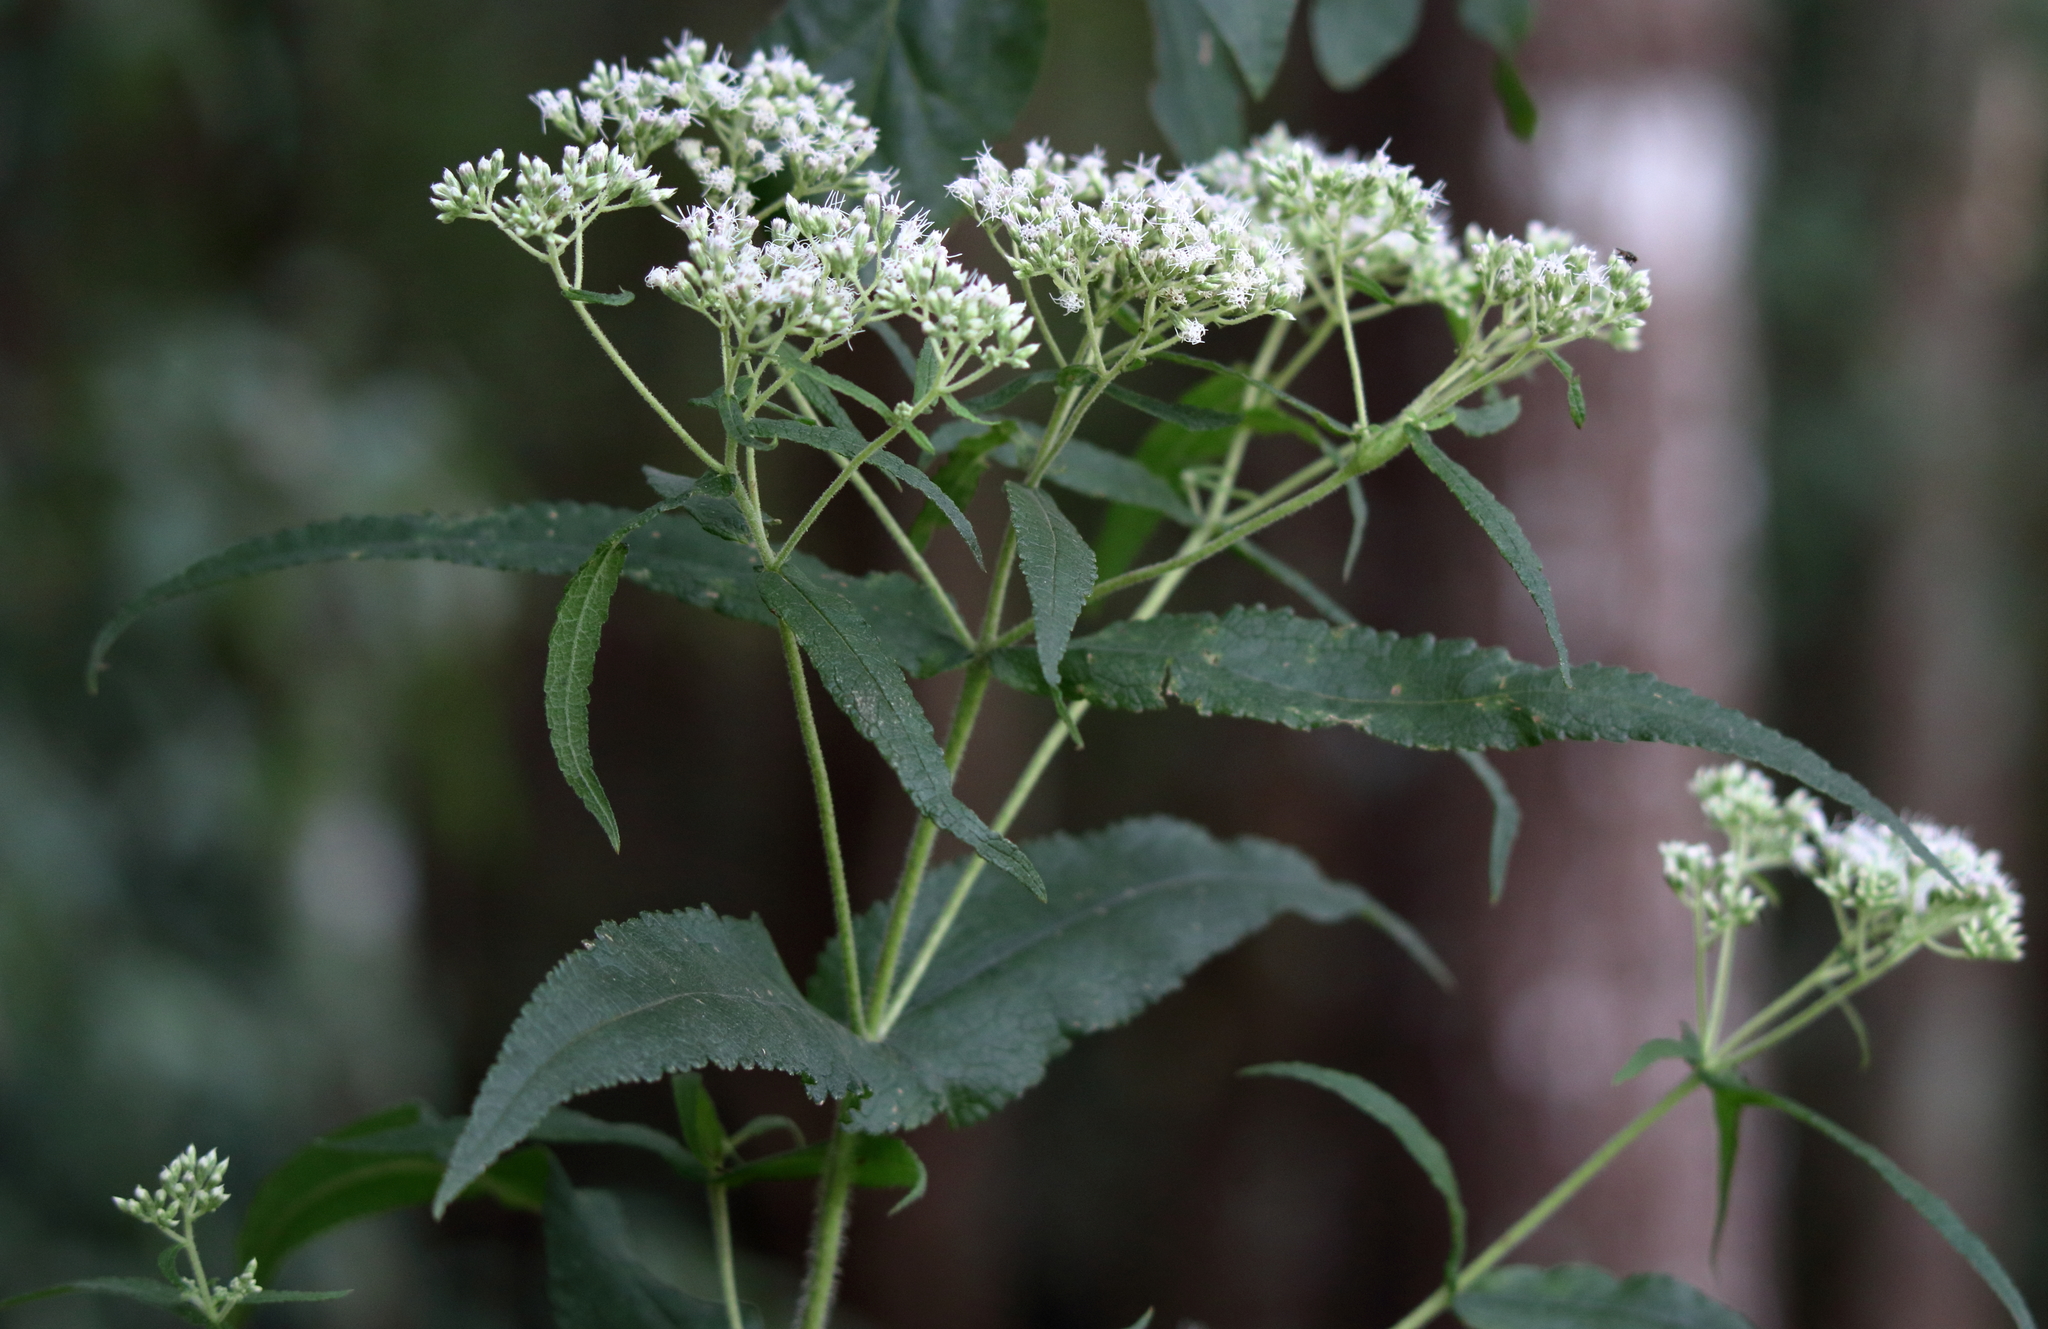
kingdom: Plantae
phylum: Tracheophyta
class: Magnoliopsida
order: Asterales
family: Asteraceae
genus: Eupatorium
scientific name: Eupatorium perfoliatum
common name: Boneset
